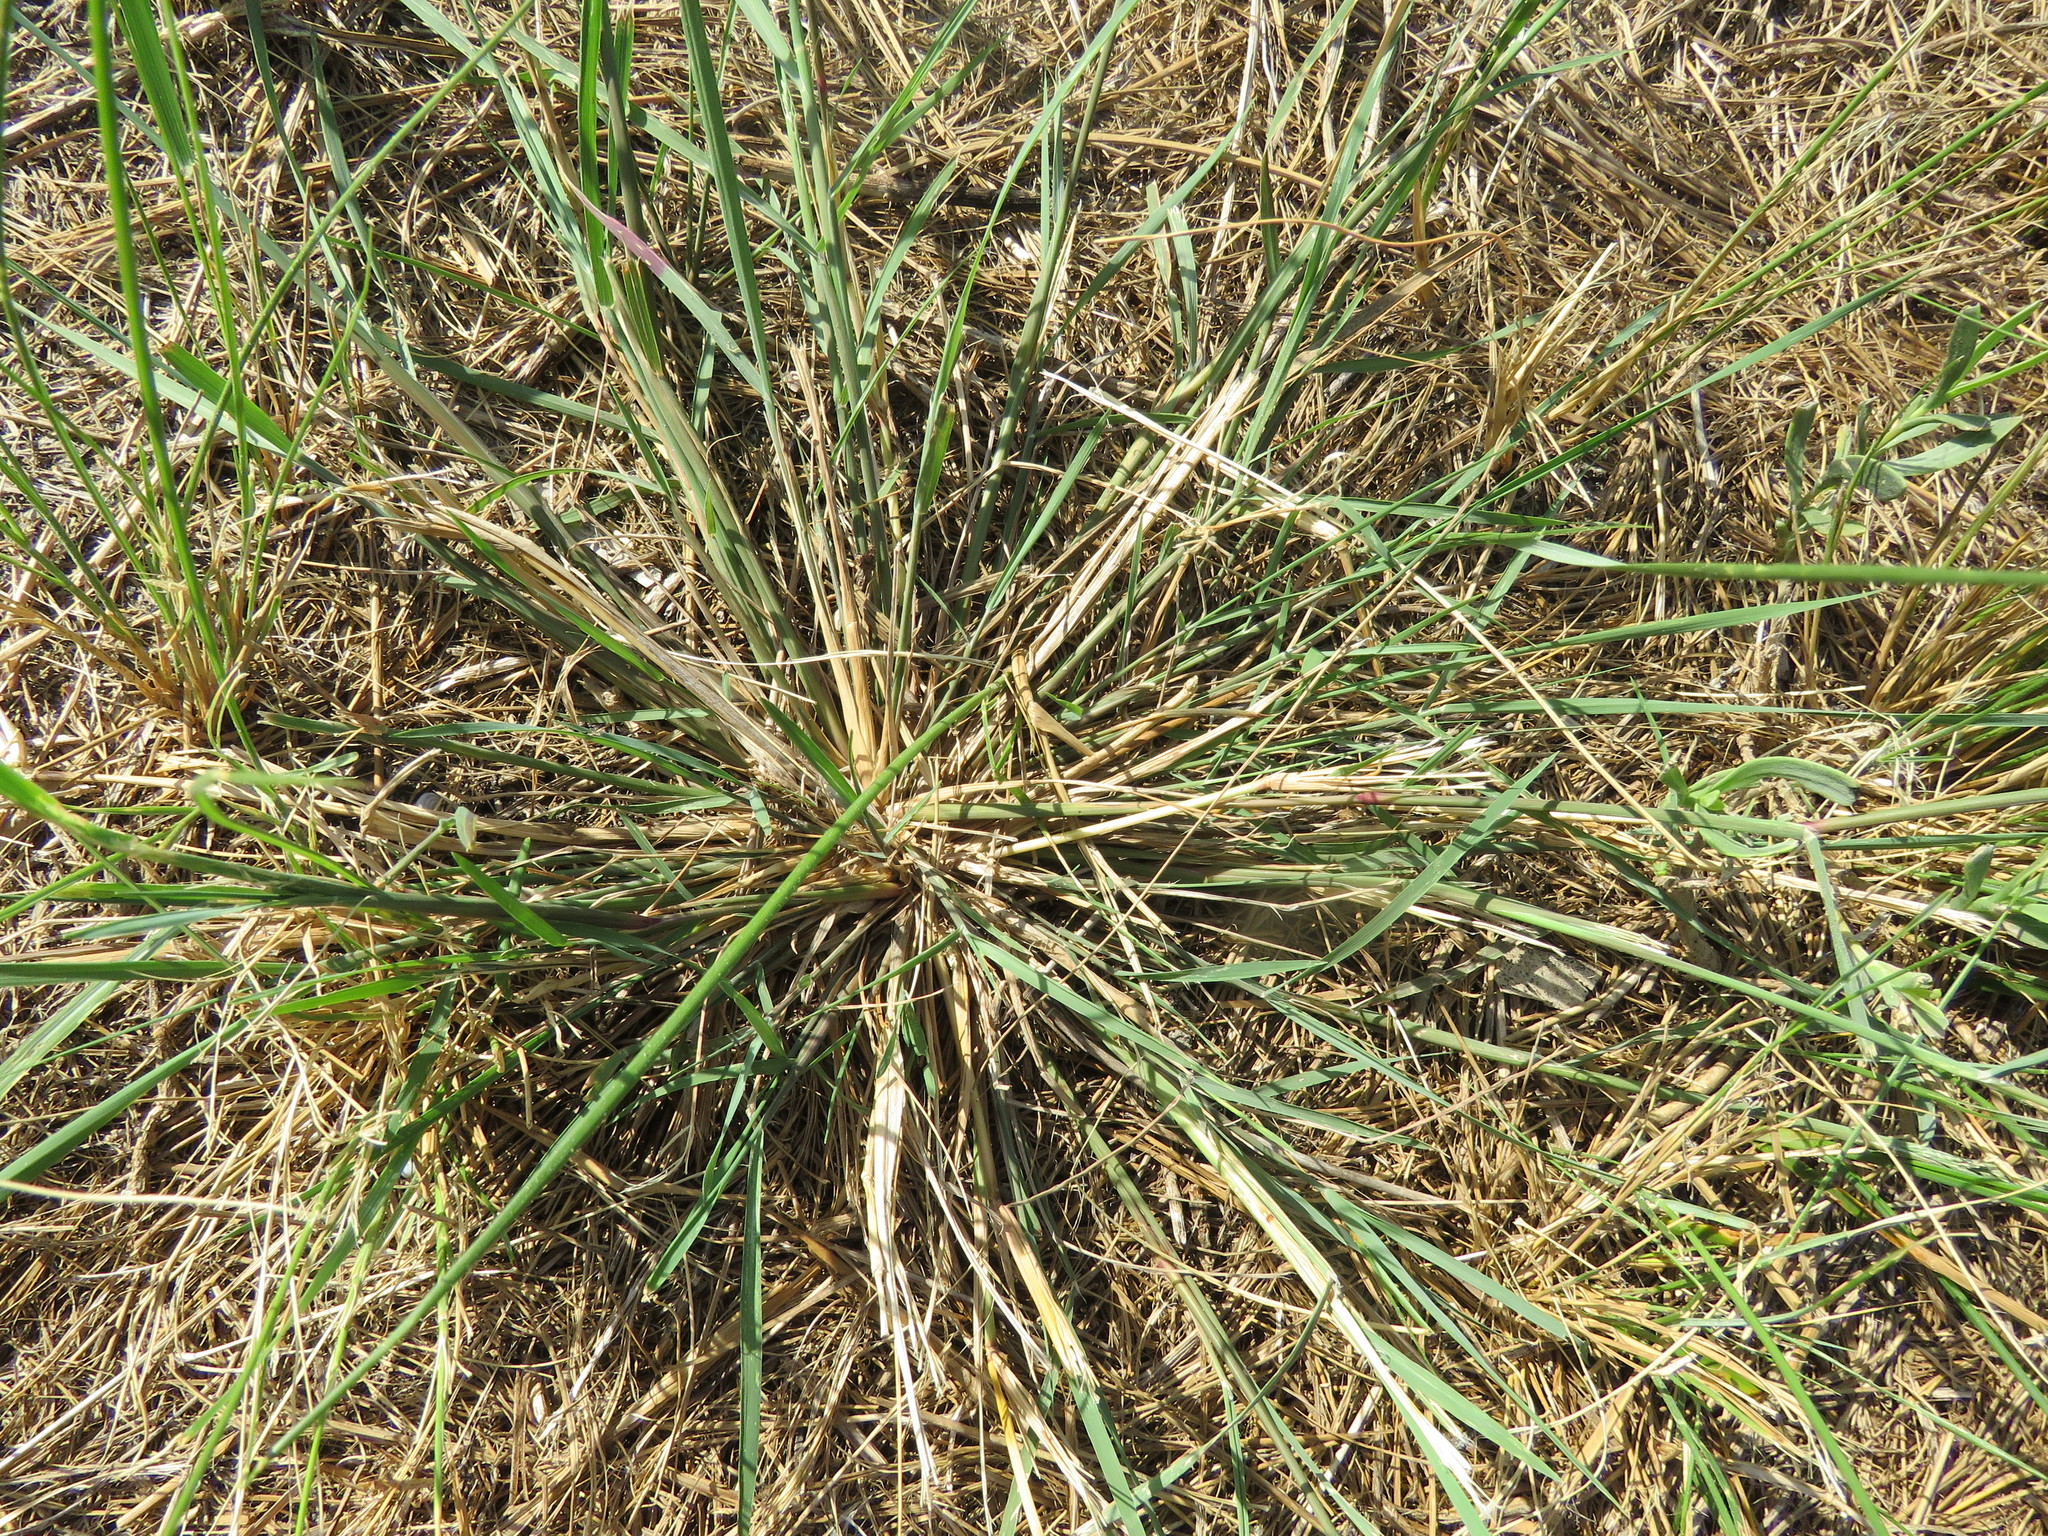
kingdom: Plantae
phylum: Tracheophyta
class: Liliopsida
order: Poales
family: Poaceae
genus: Diplachne
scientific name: Diplachne fusca
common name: Brown beetle grass
